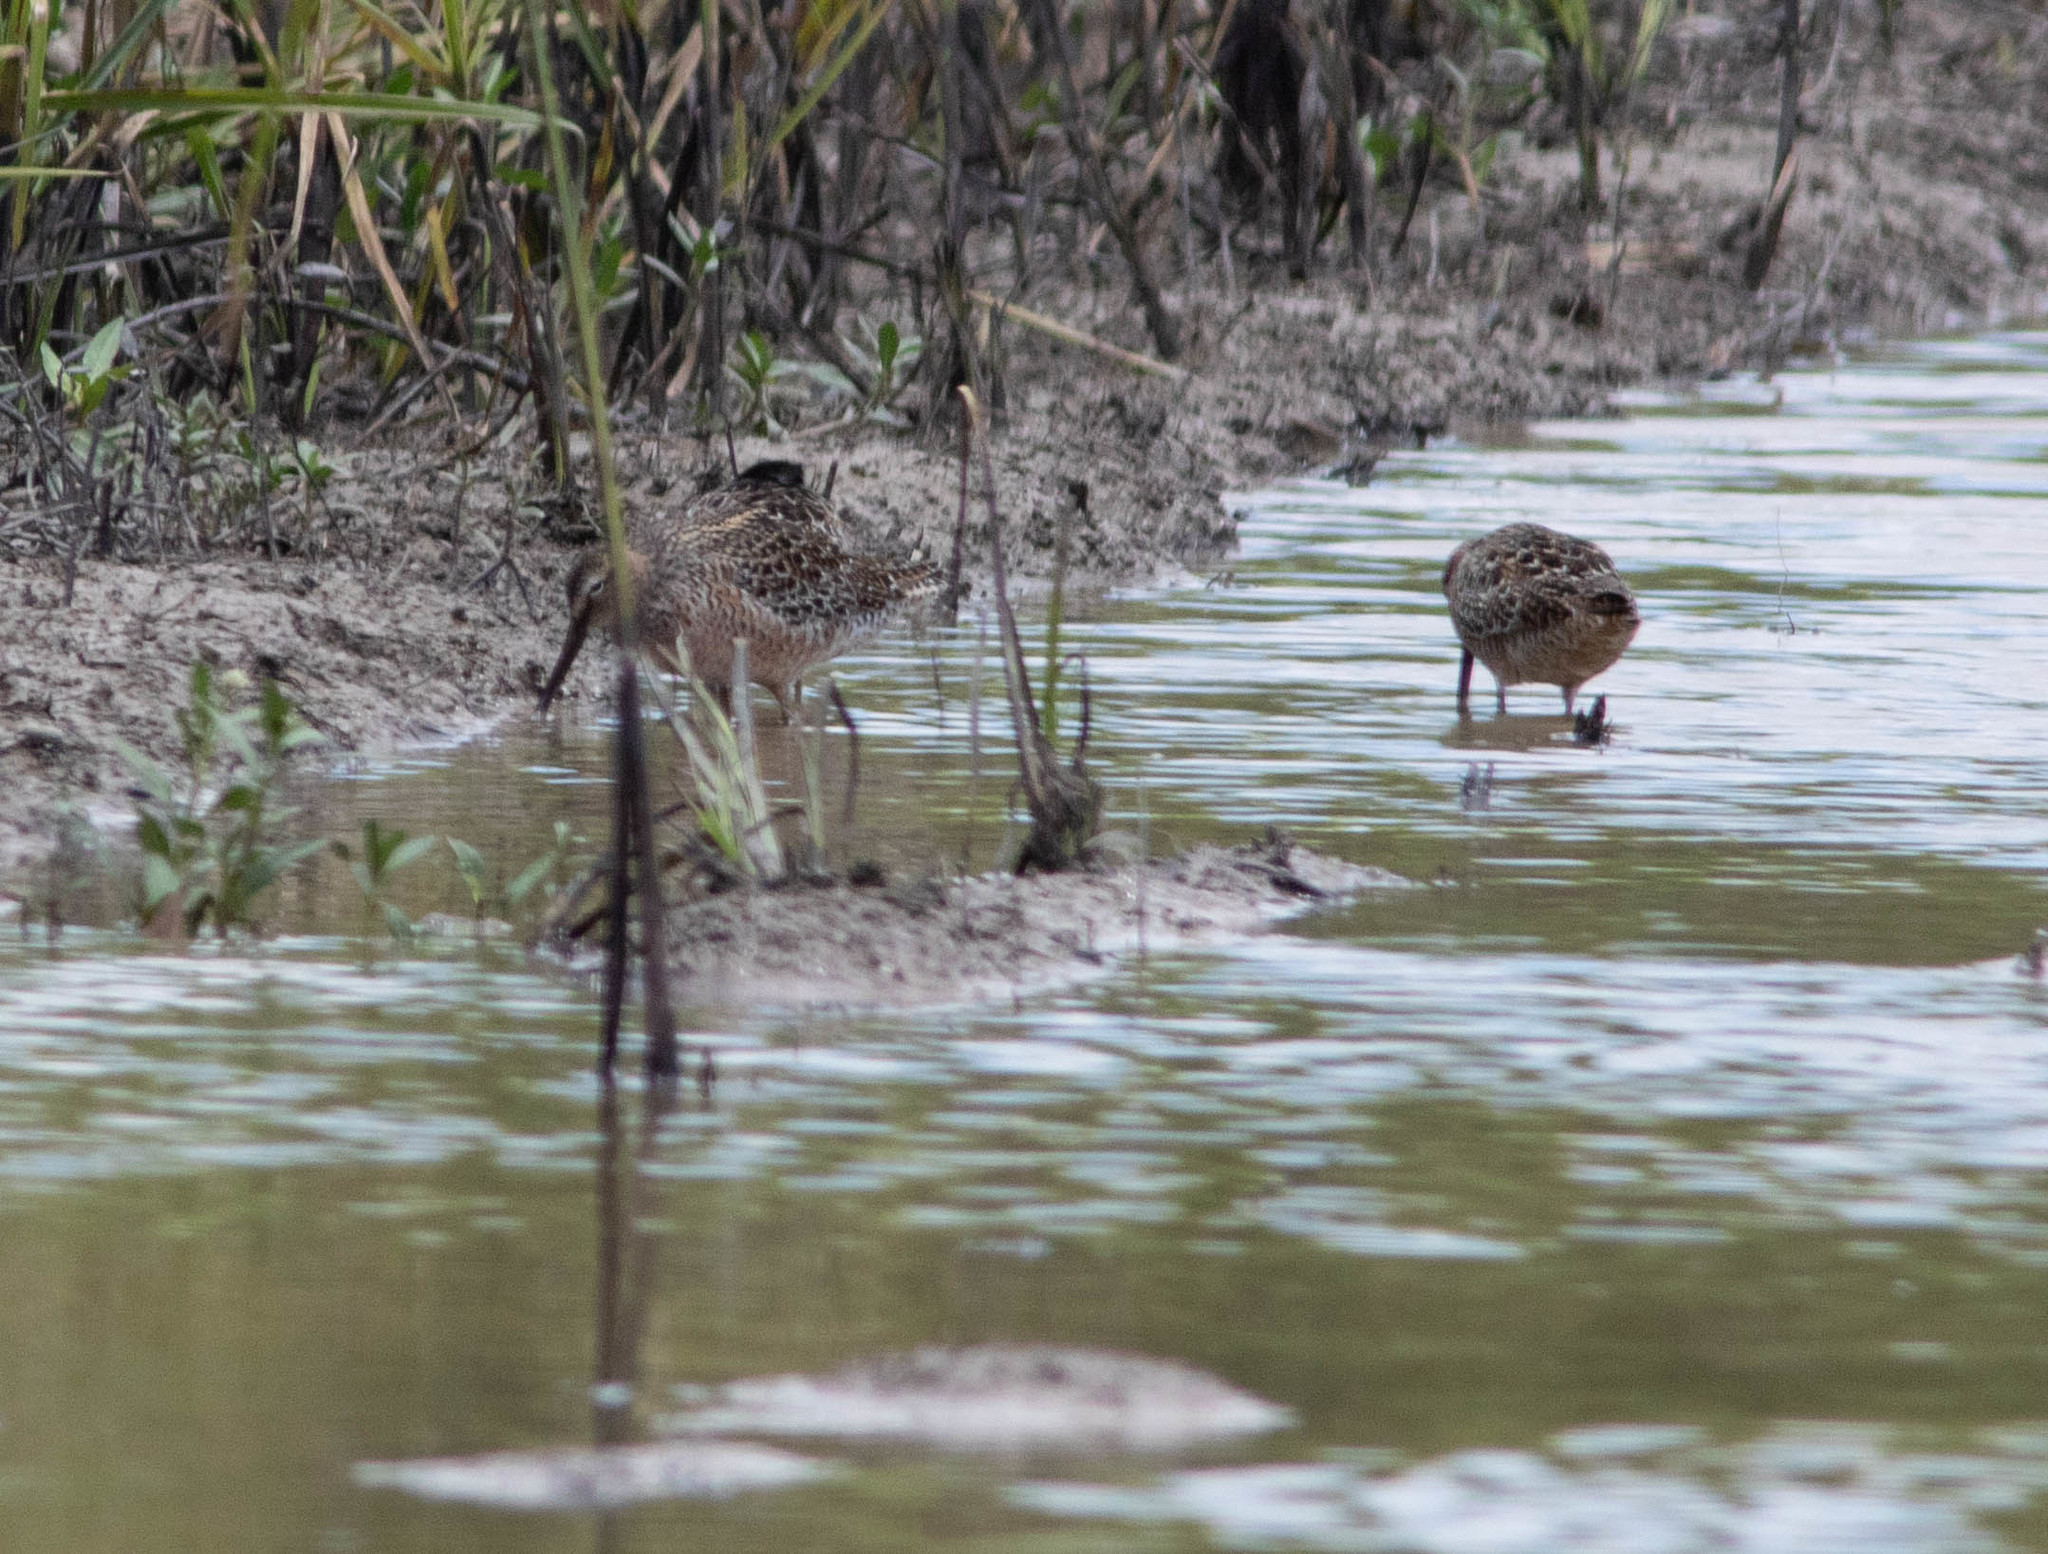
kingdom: Animalia
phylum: Chordata
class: Aves
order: Charadriiformes
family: Scolopacidae
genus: Limnodromus
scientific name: Limnodromus scolopaceus
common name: Long-billed dowitcher
